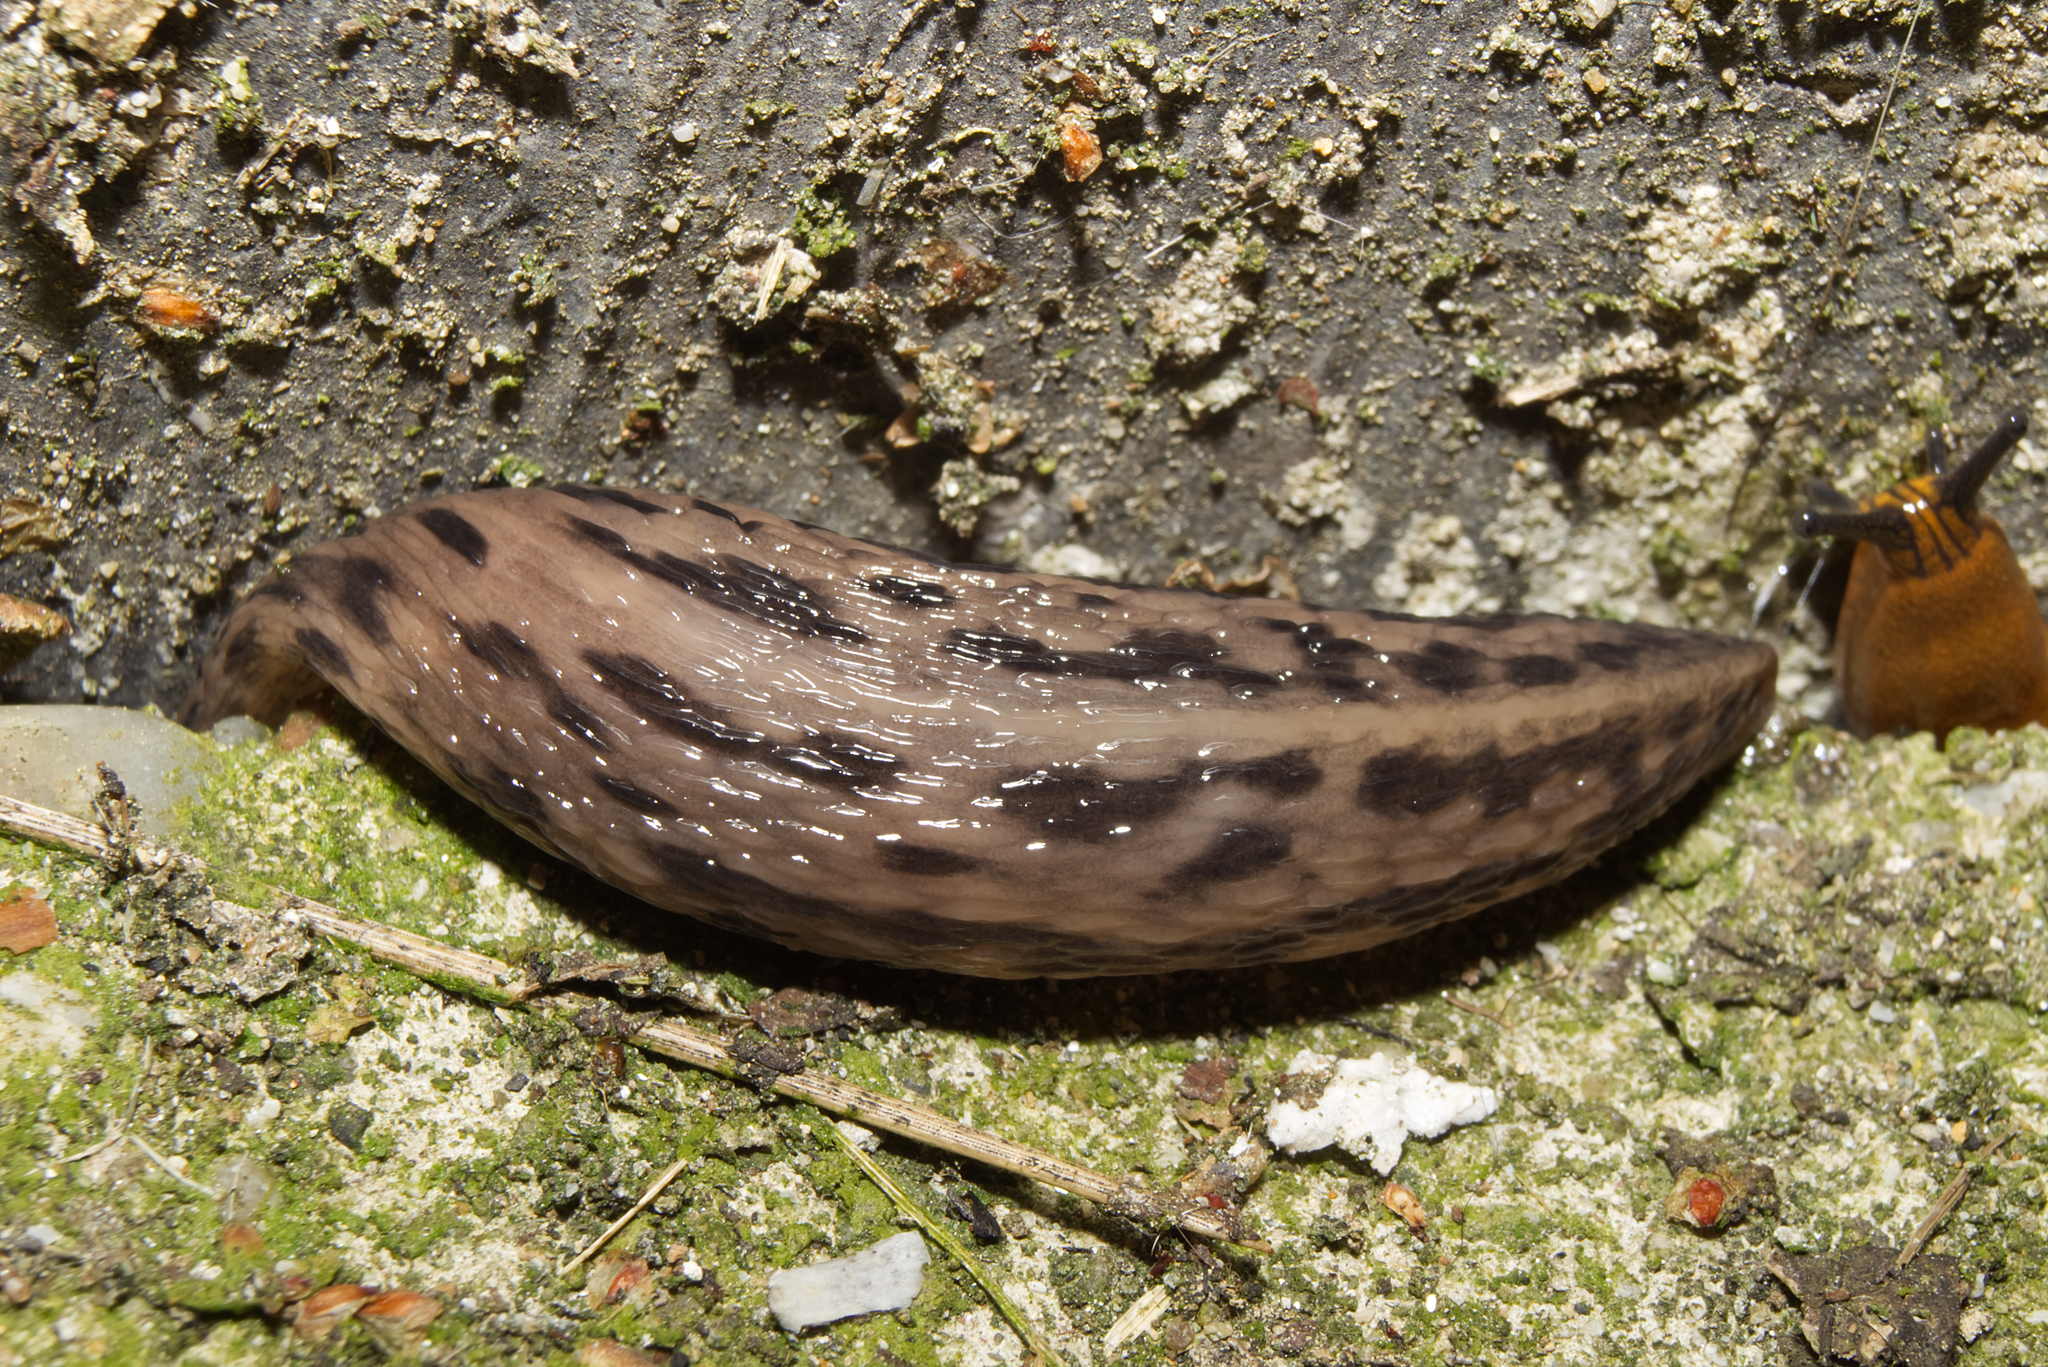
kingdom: Animalia
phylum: Mollusca
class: Gastropoda
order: Stylommatophora
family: Limacidae
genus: Limax
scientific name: Limax maximus
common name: Great grey slug
